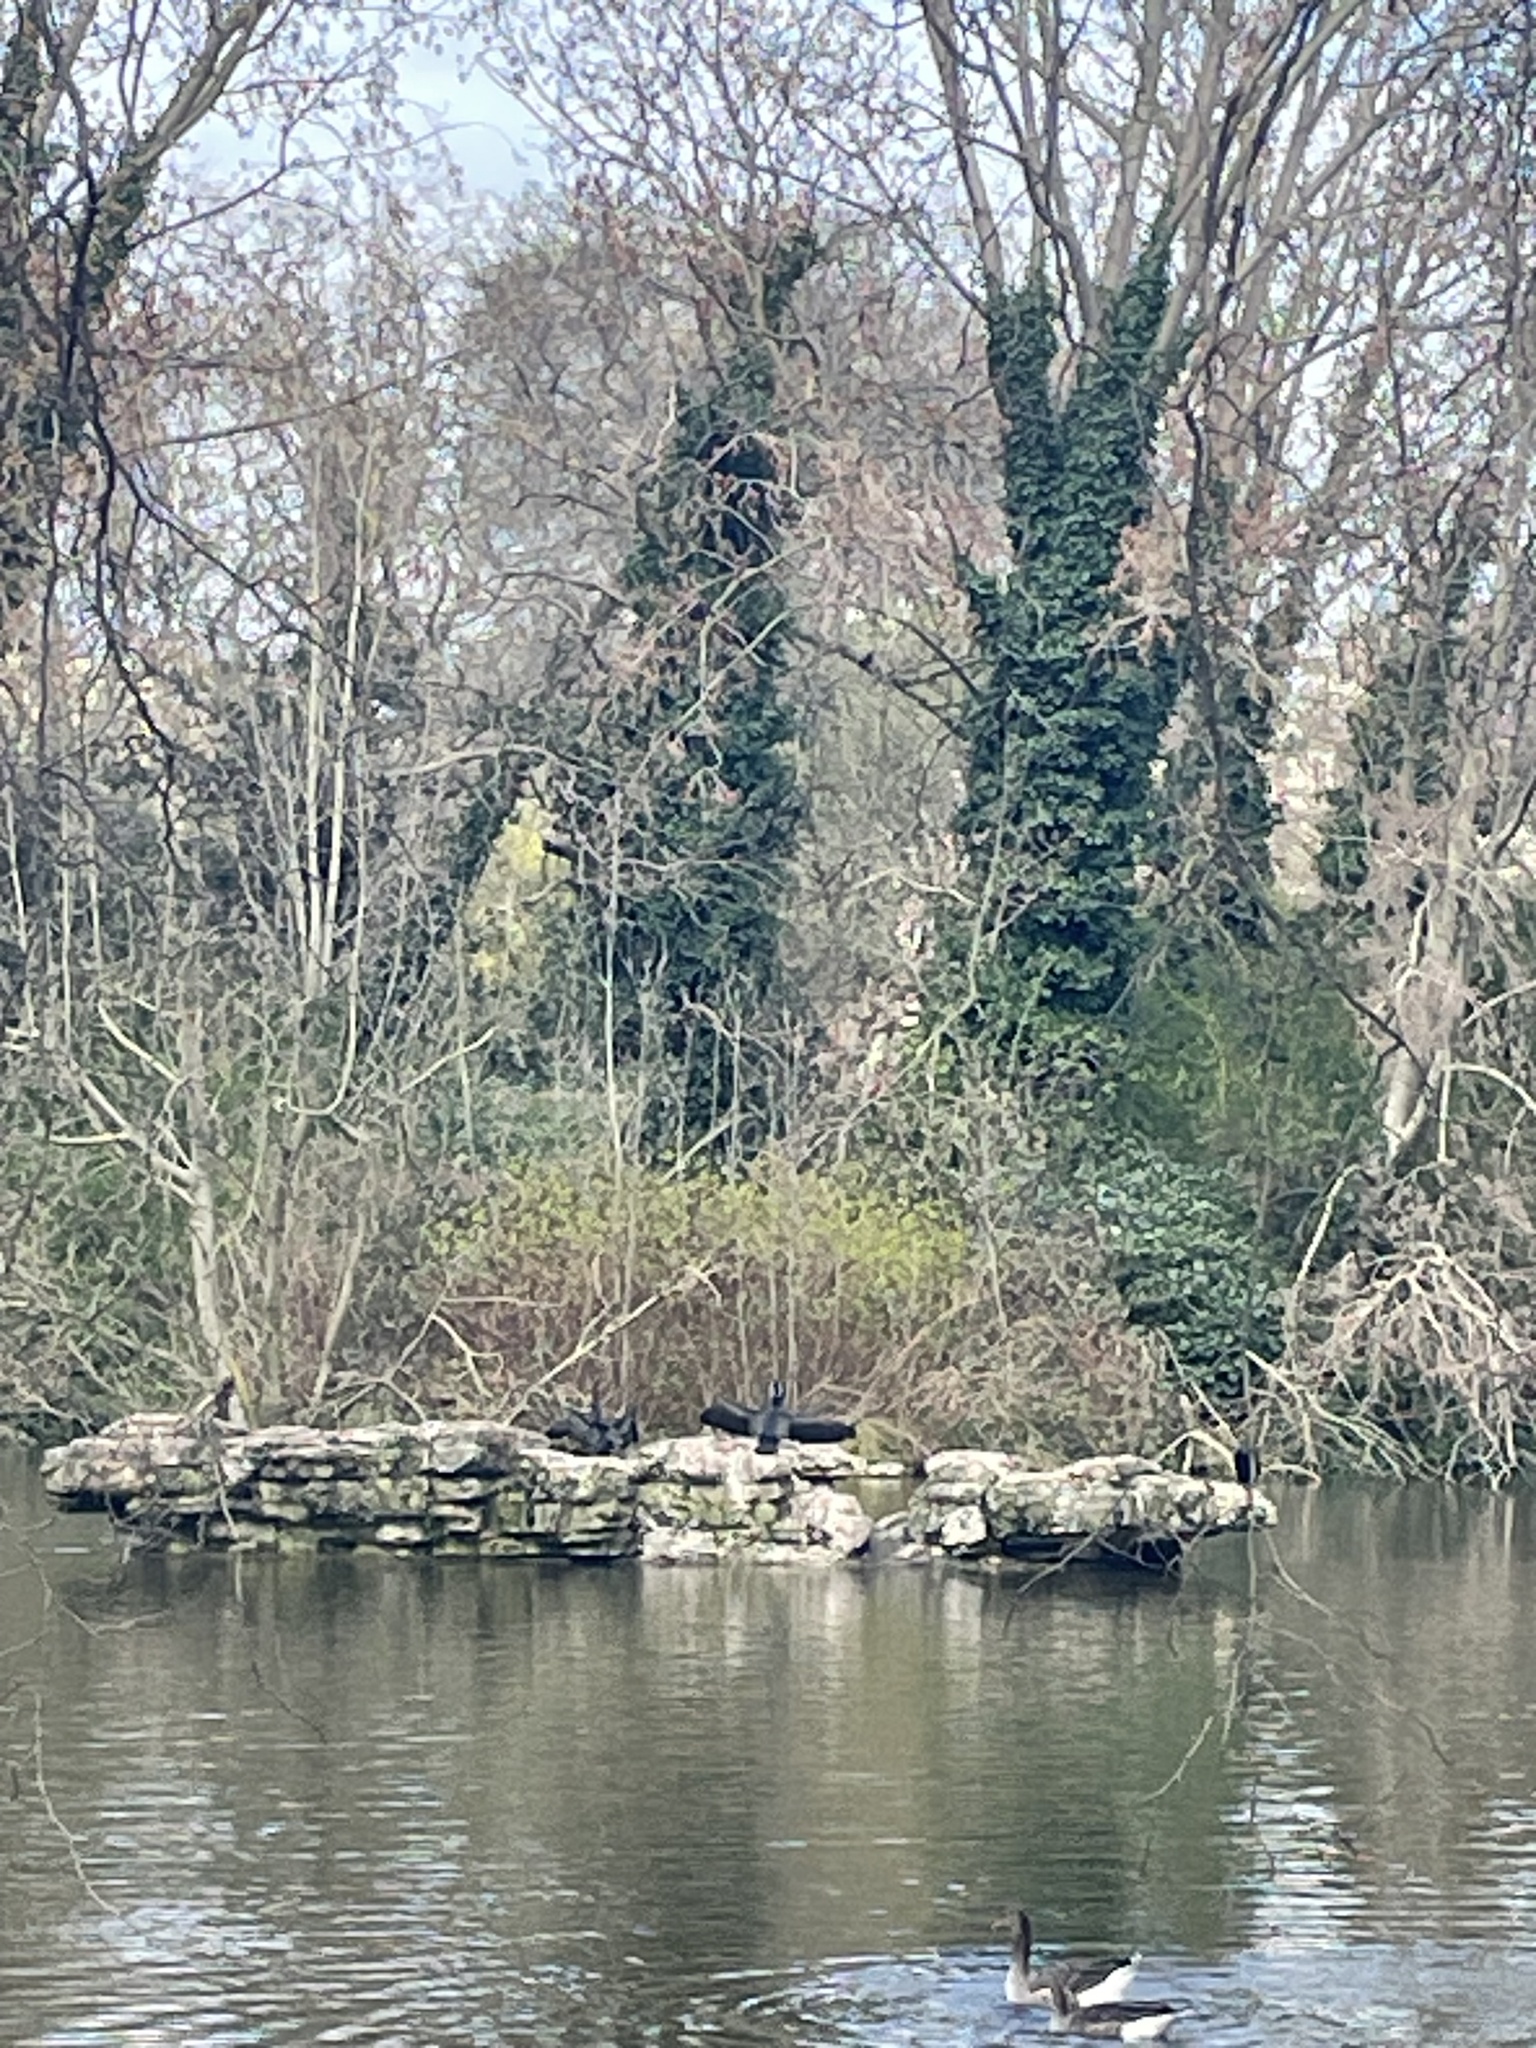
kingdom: Animalia
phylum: Chordata
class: Aves
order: Suliformes
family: Phalacrocoracidae
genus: Phalacrocorax
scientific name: Phalacrocorax carbo
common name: Great cormorant
